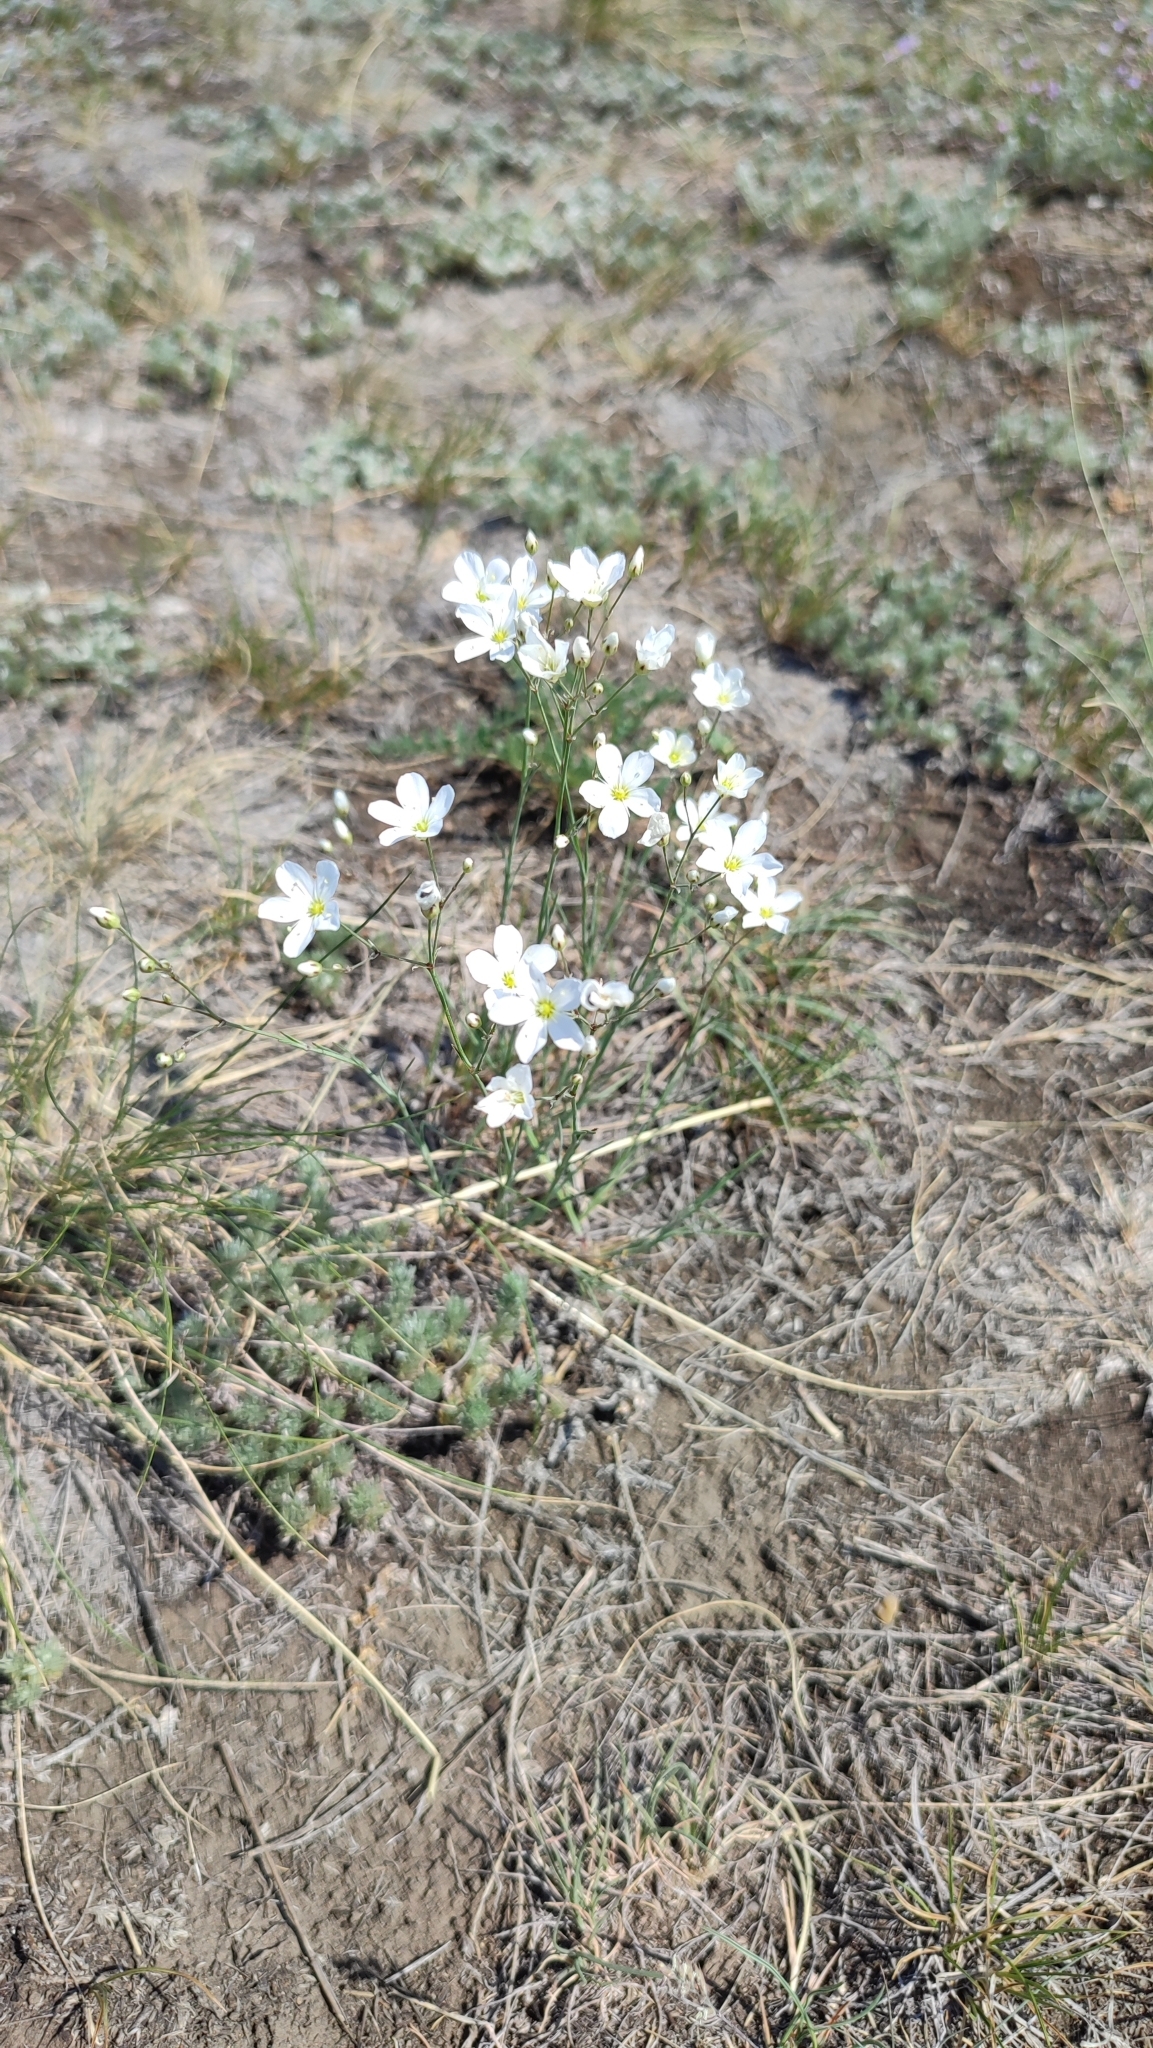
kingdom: Plantae
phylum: Tracheophyta
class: Magnoliopsida
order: Caryophyllales
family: Caryophyllaceae
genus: Eremogone
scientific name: Eremogone saxatilis
